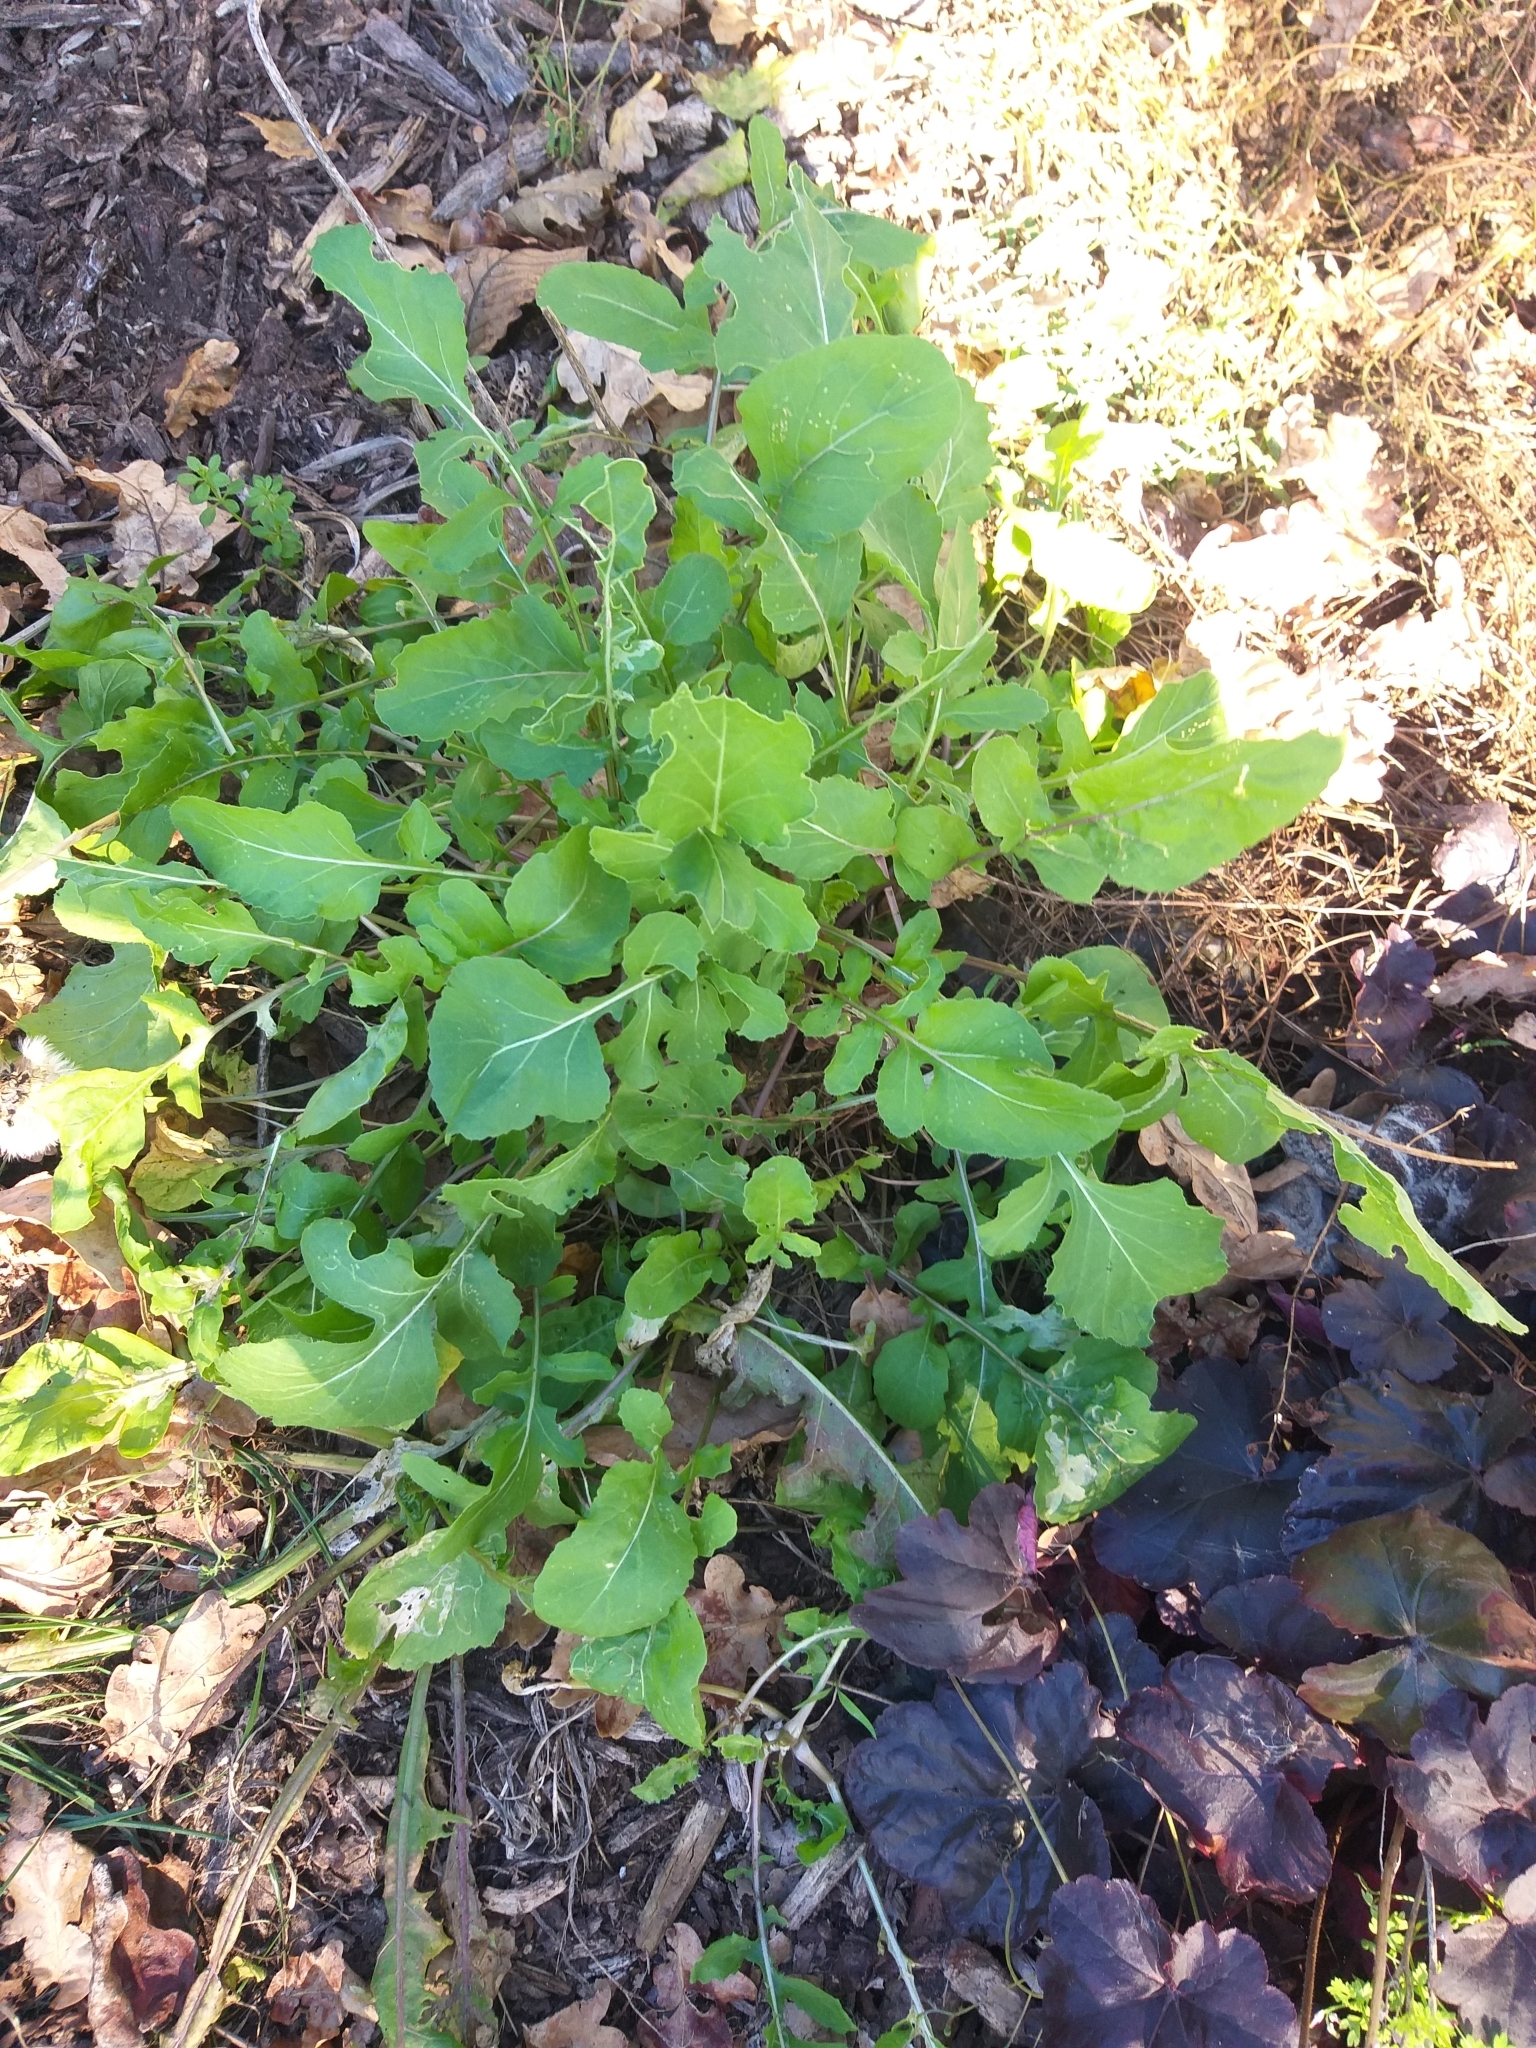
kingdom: Plantae
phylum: Tracheophyta
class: Magnoliopsida
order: Brassicales
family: Brassicaceae
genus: Raphanus
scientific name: Raphanus raphanistrum
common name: Wild radish
